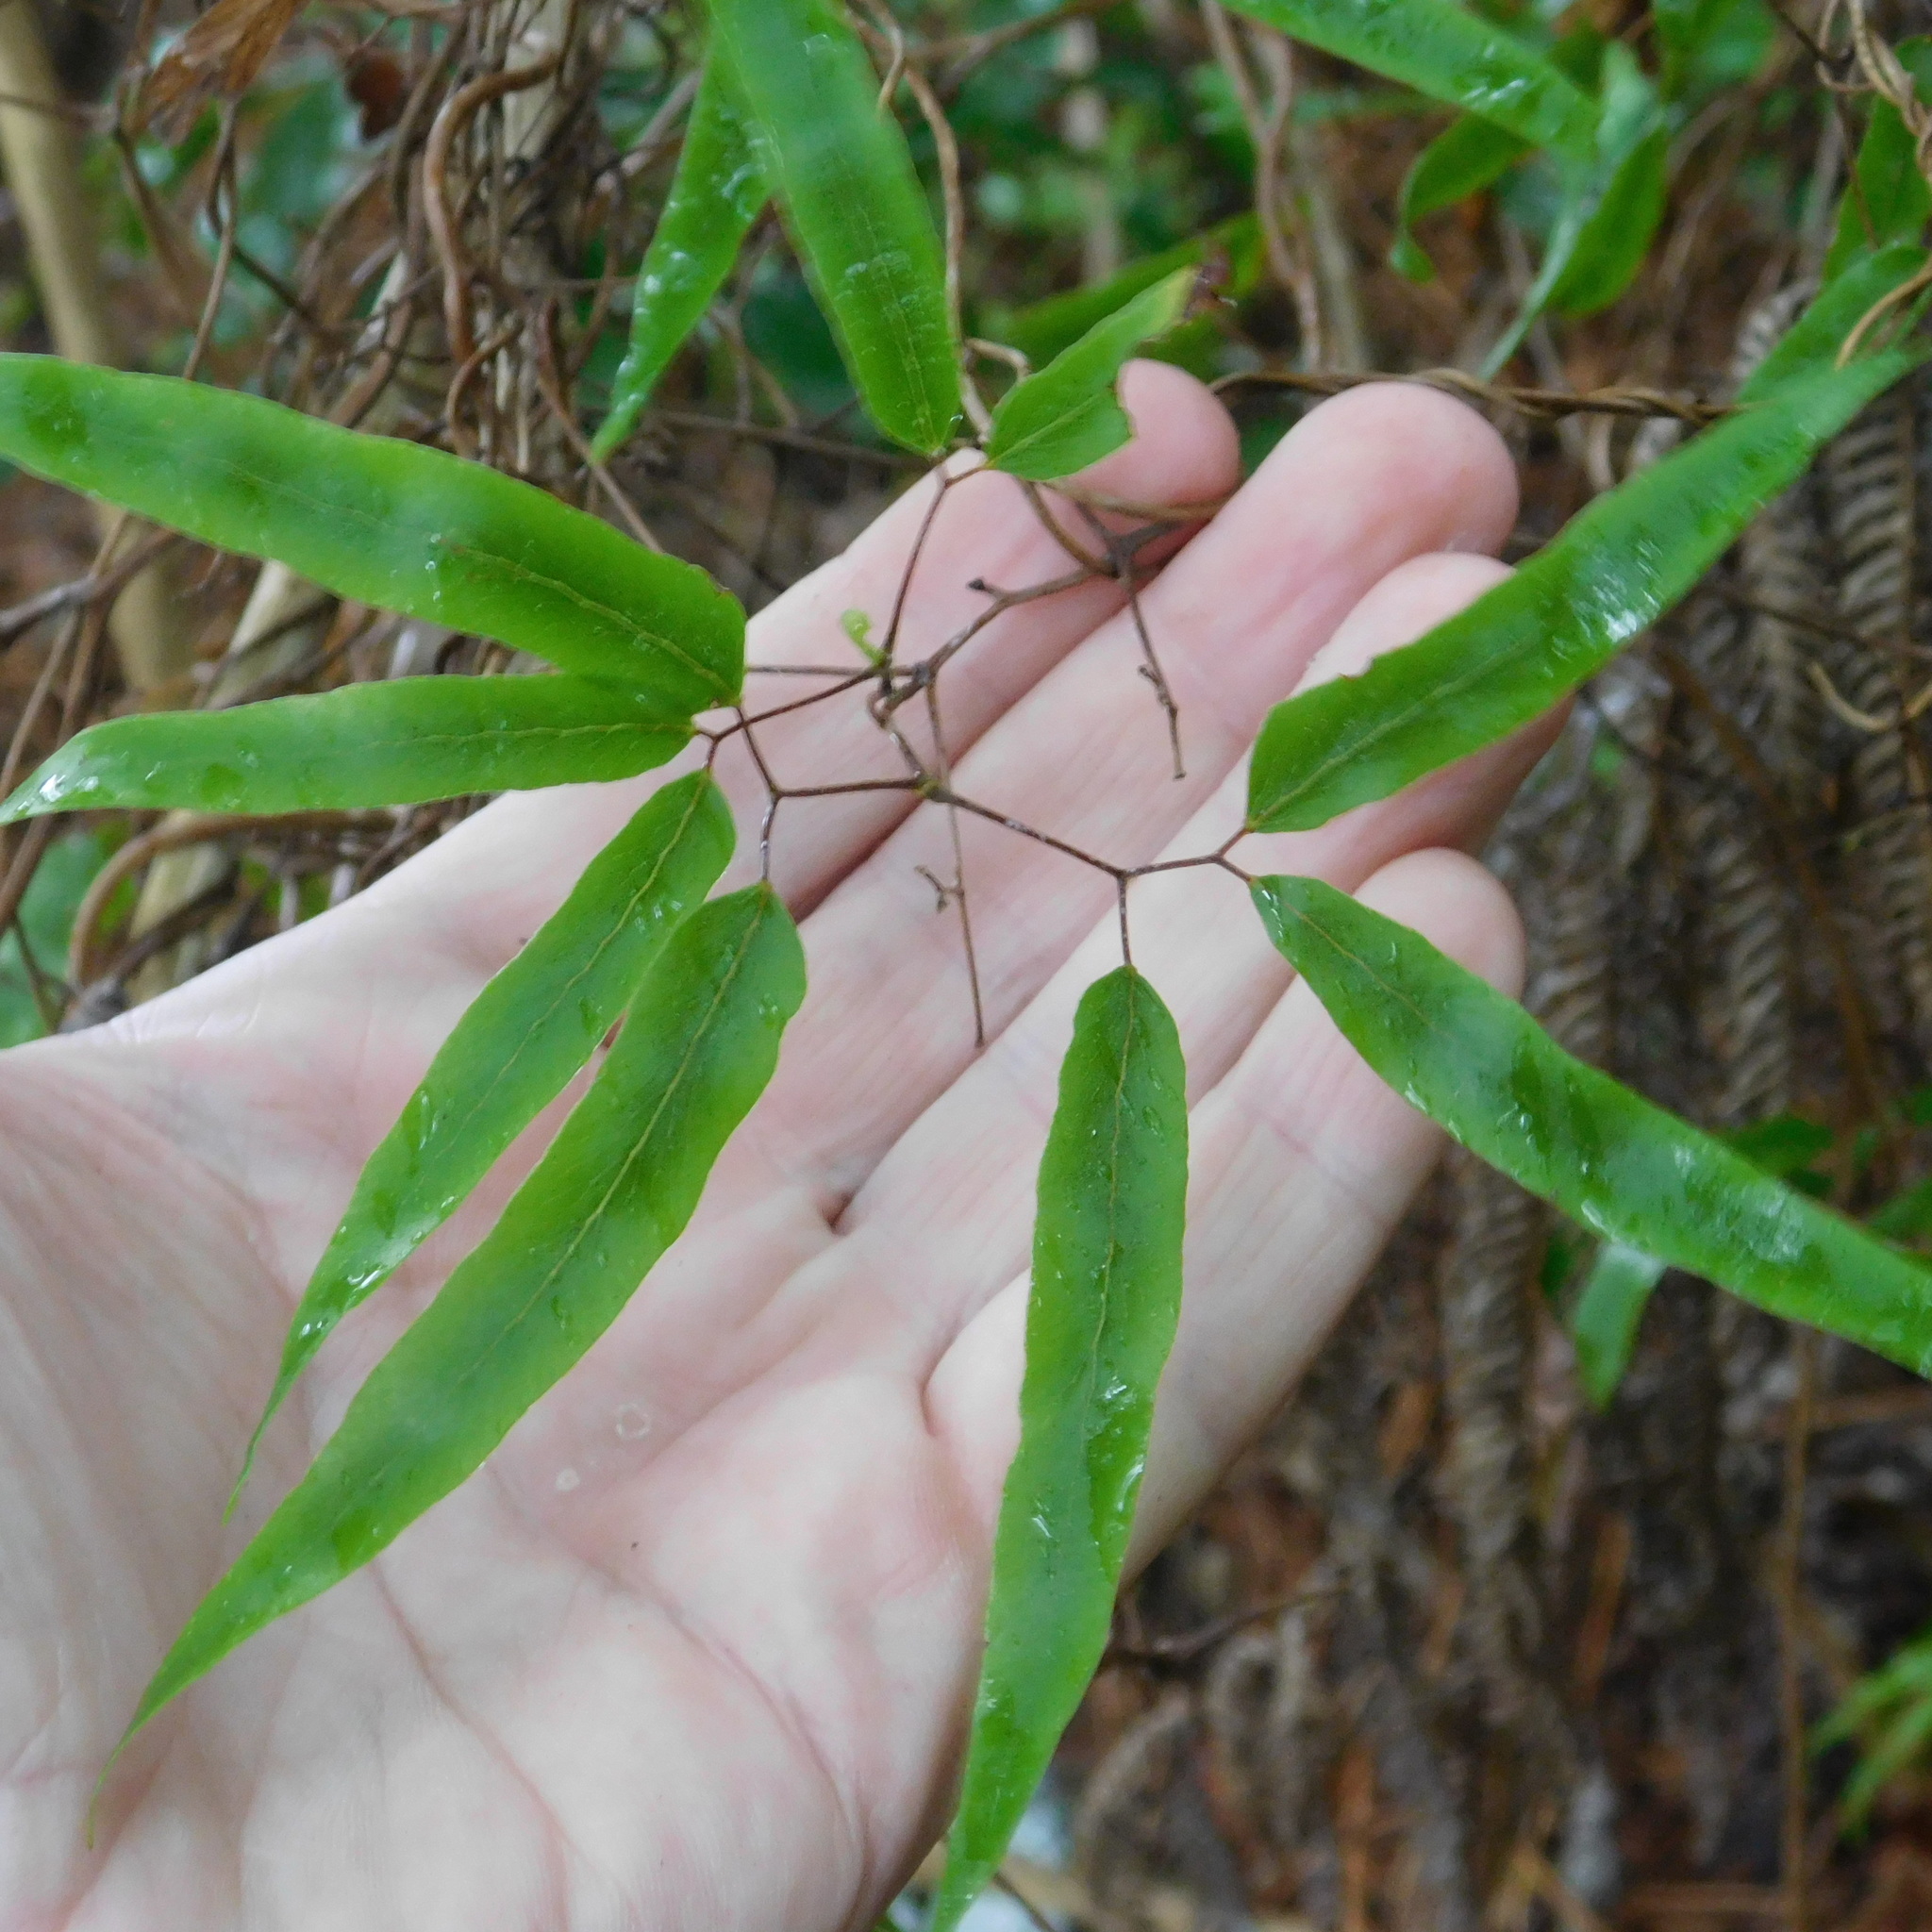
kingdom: Plantae
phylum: Tracheophyta
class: Polypodiopsida
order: Schizaeales
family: Lygodiaceae
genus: Lygodium
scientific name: Lygodium articulatum
